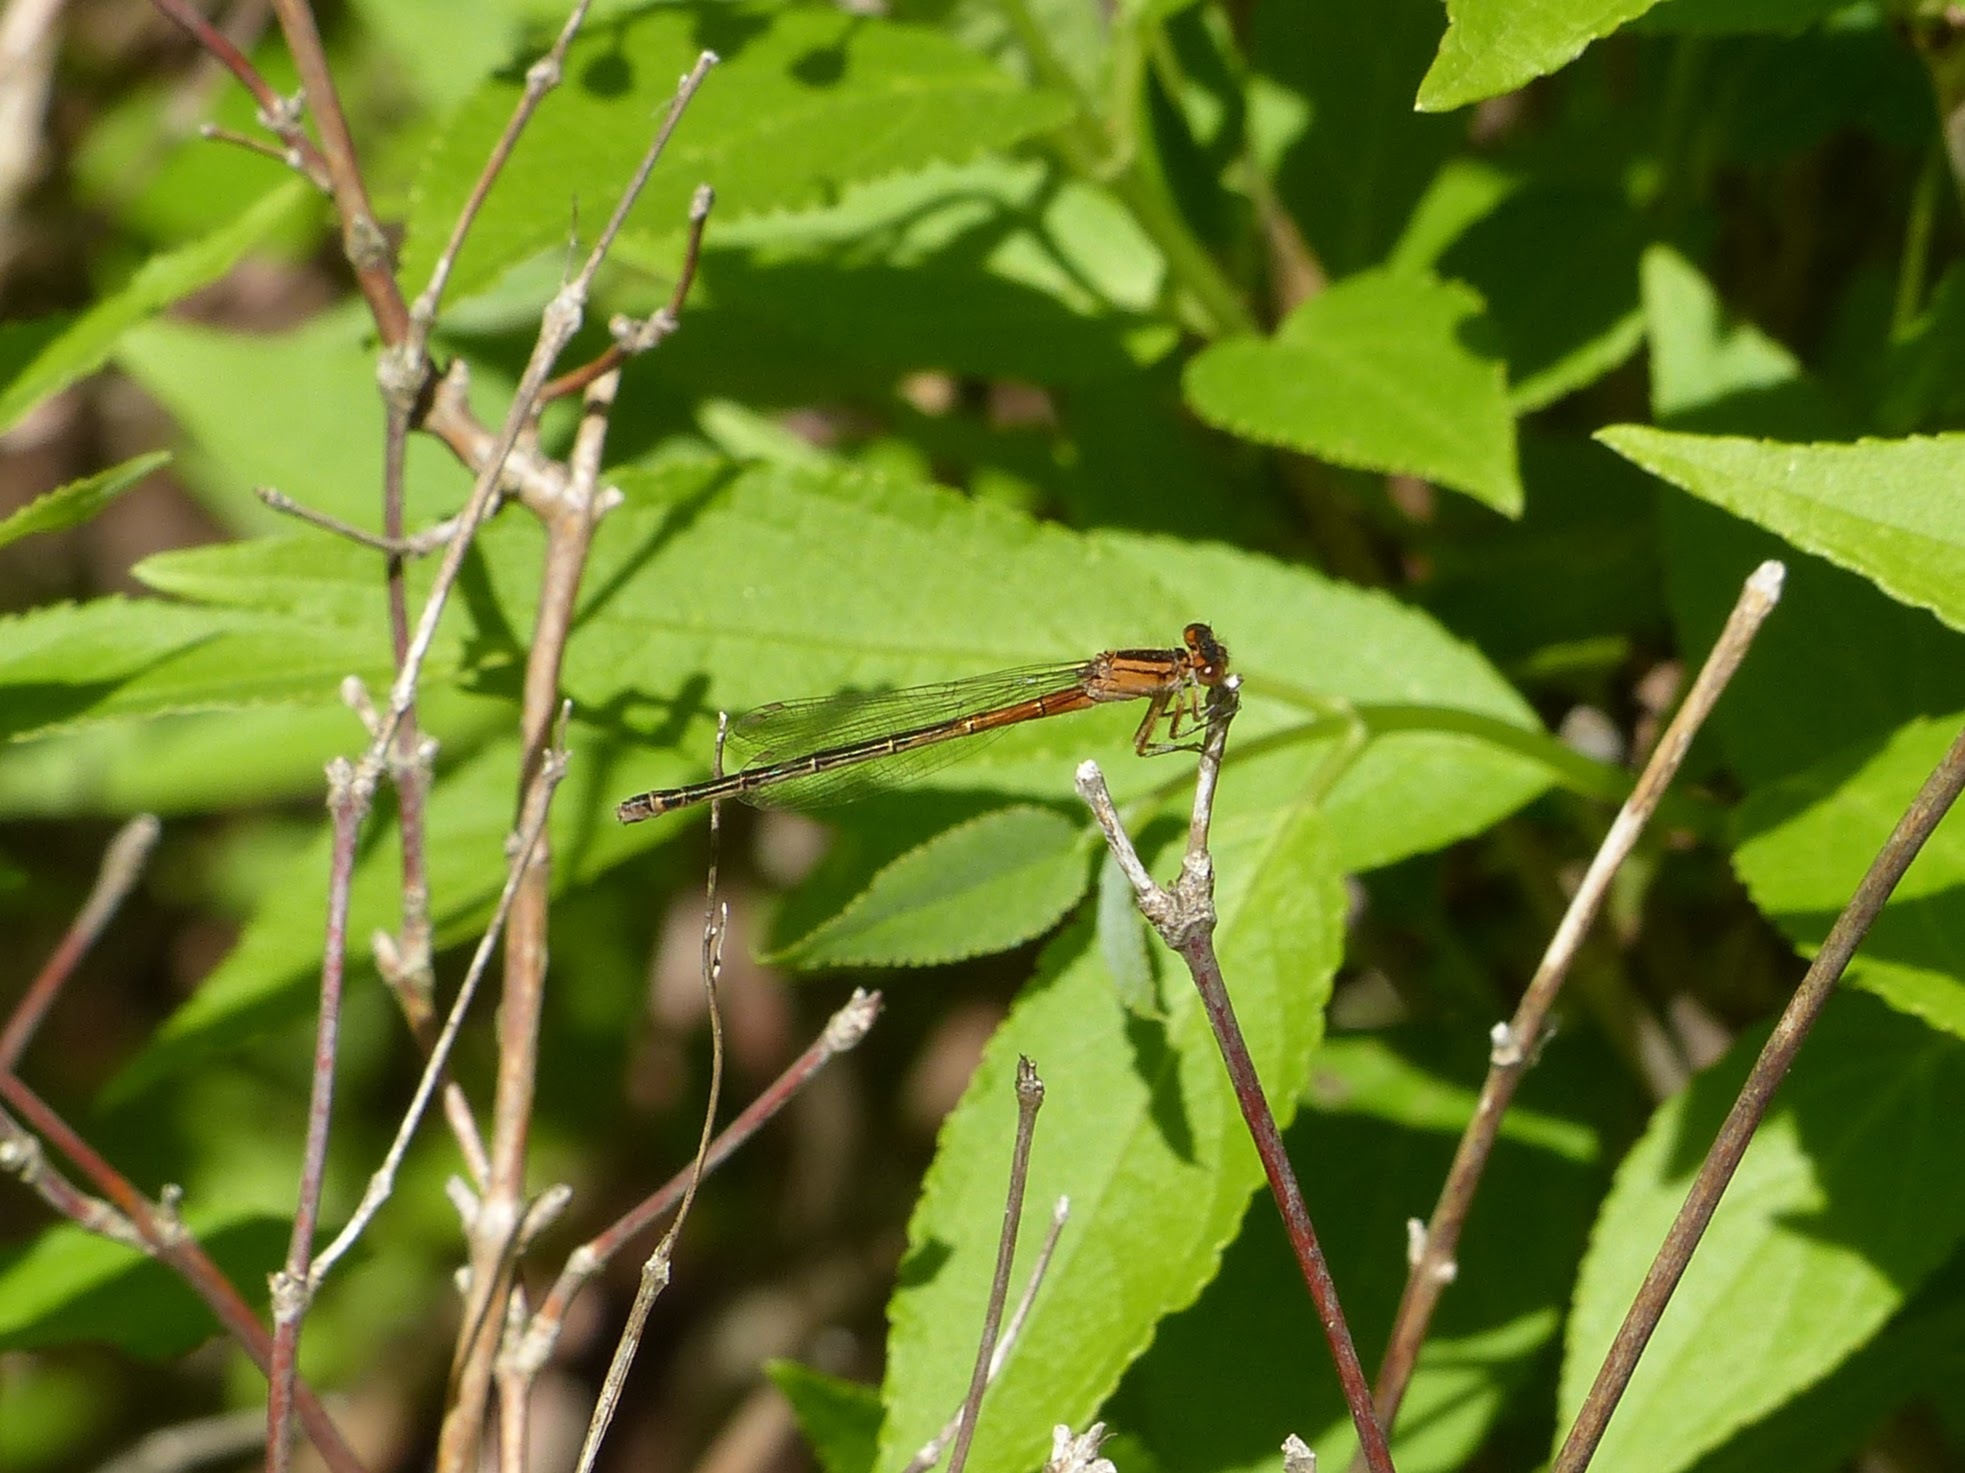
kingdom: Animalia
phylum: Arthropoda
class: Insecta
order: Odonata
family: Coenagrionidae
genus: Ischnura
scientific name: Ischnura verticalis
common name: Eastern forktail
